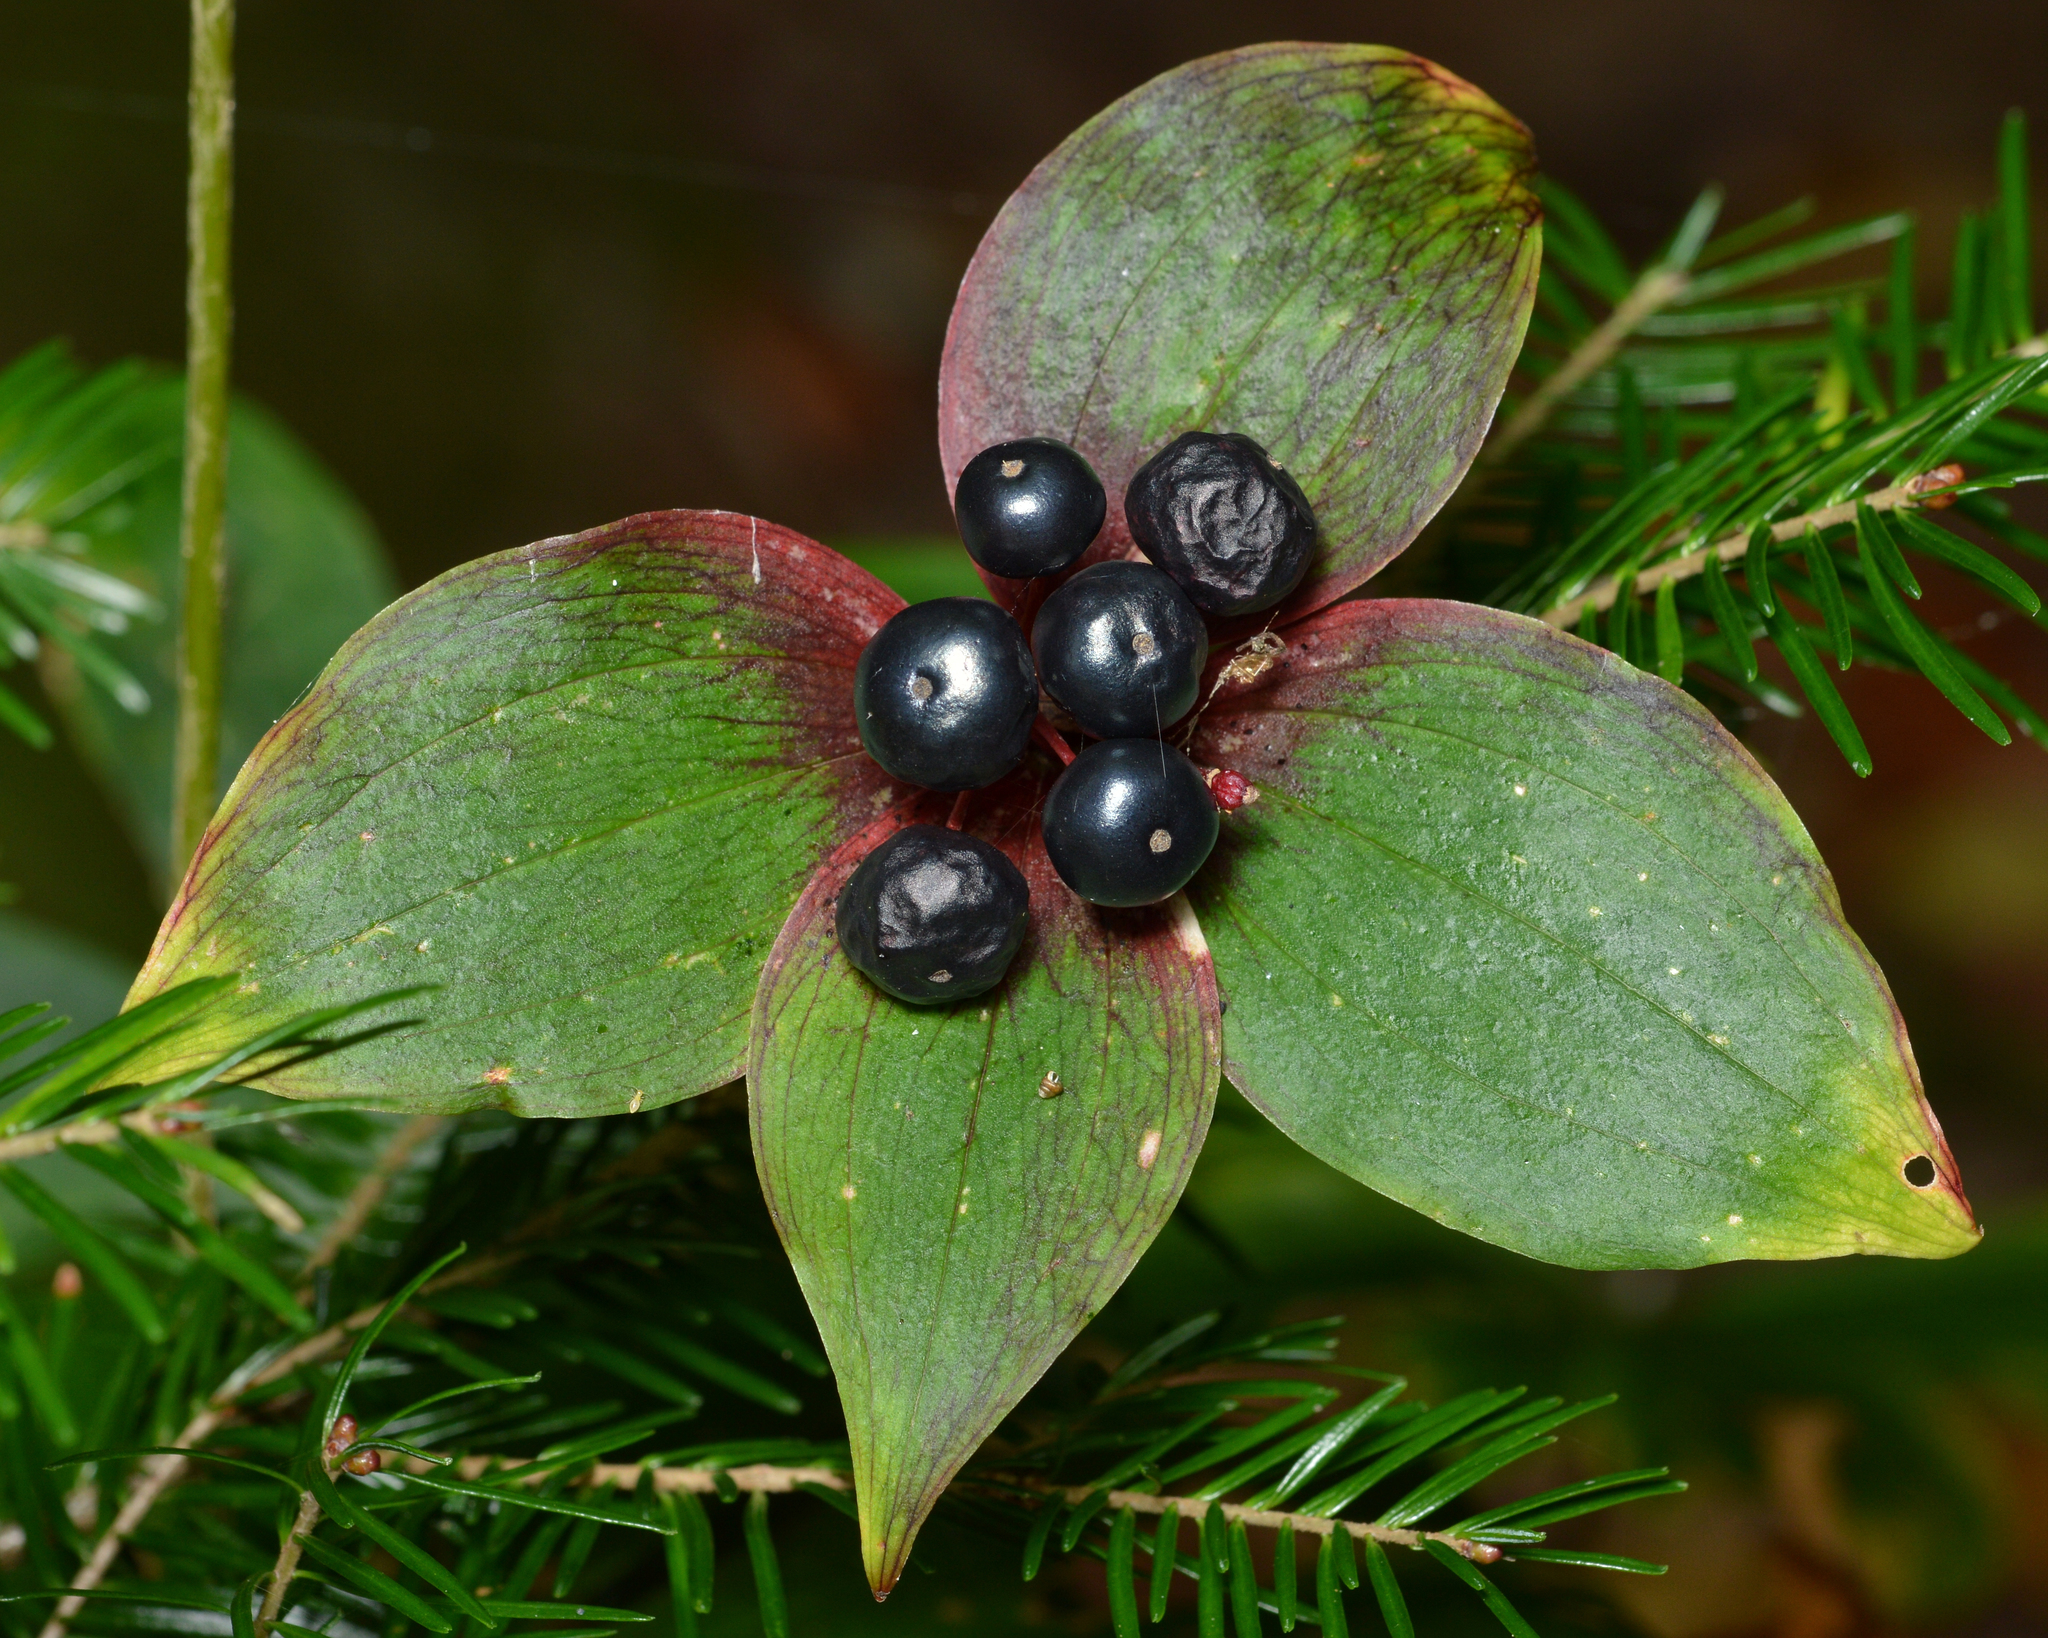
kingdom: Plantae
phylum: Tracheophyta
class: Liliopsida
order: Liliales
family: Liliaceae
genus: Medeola
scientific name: Medeola virginiana
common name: Indian cucumber-root
